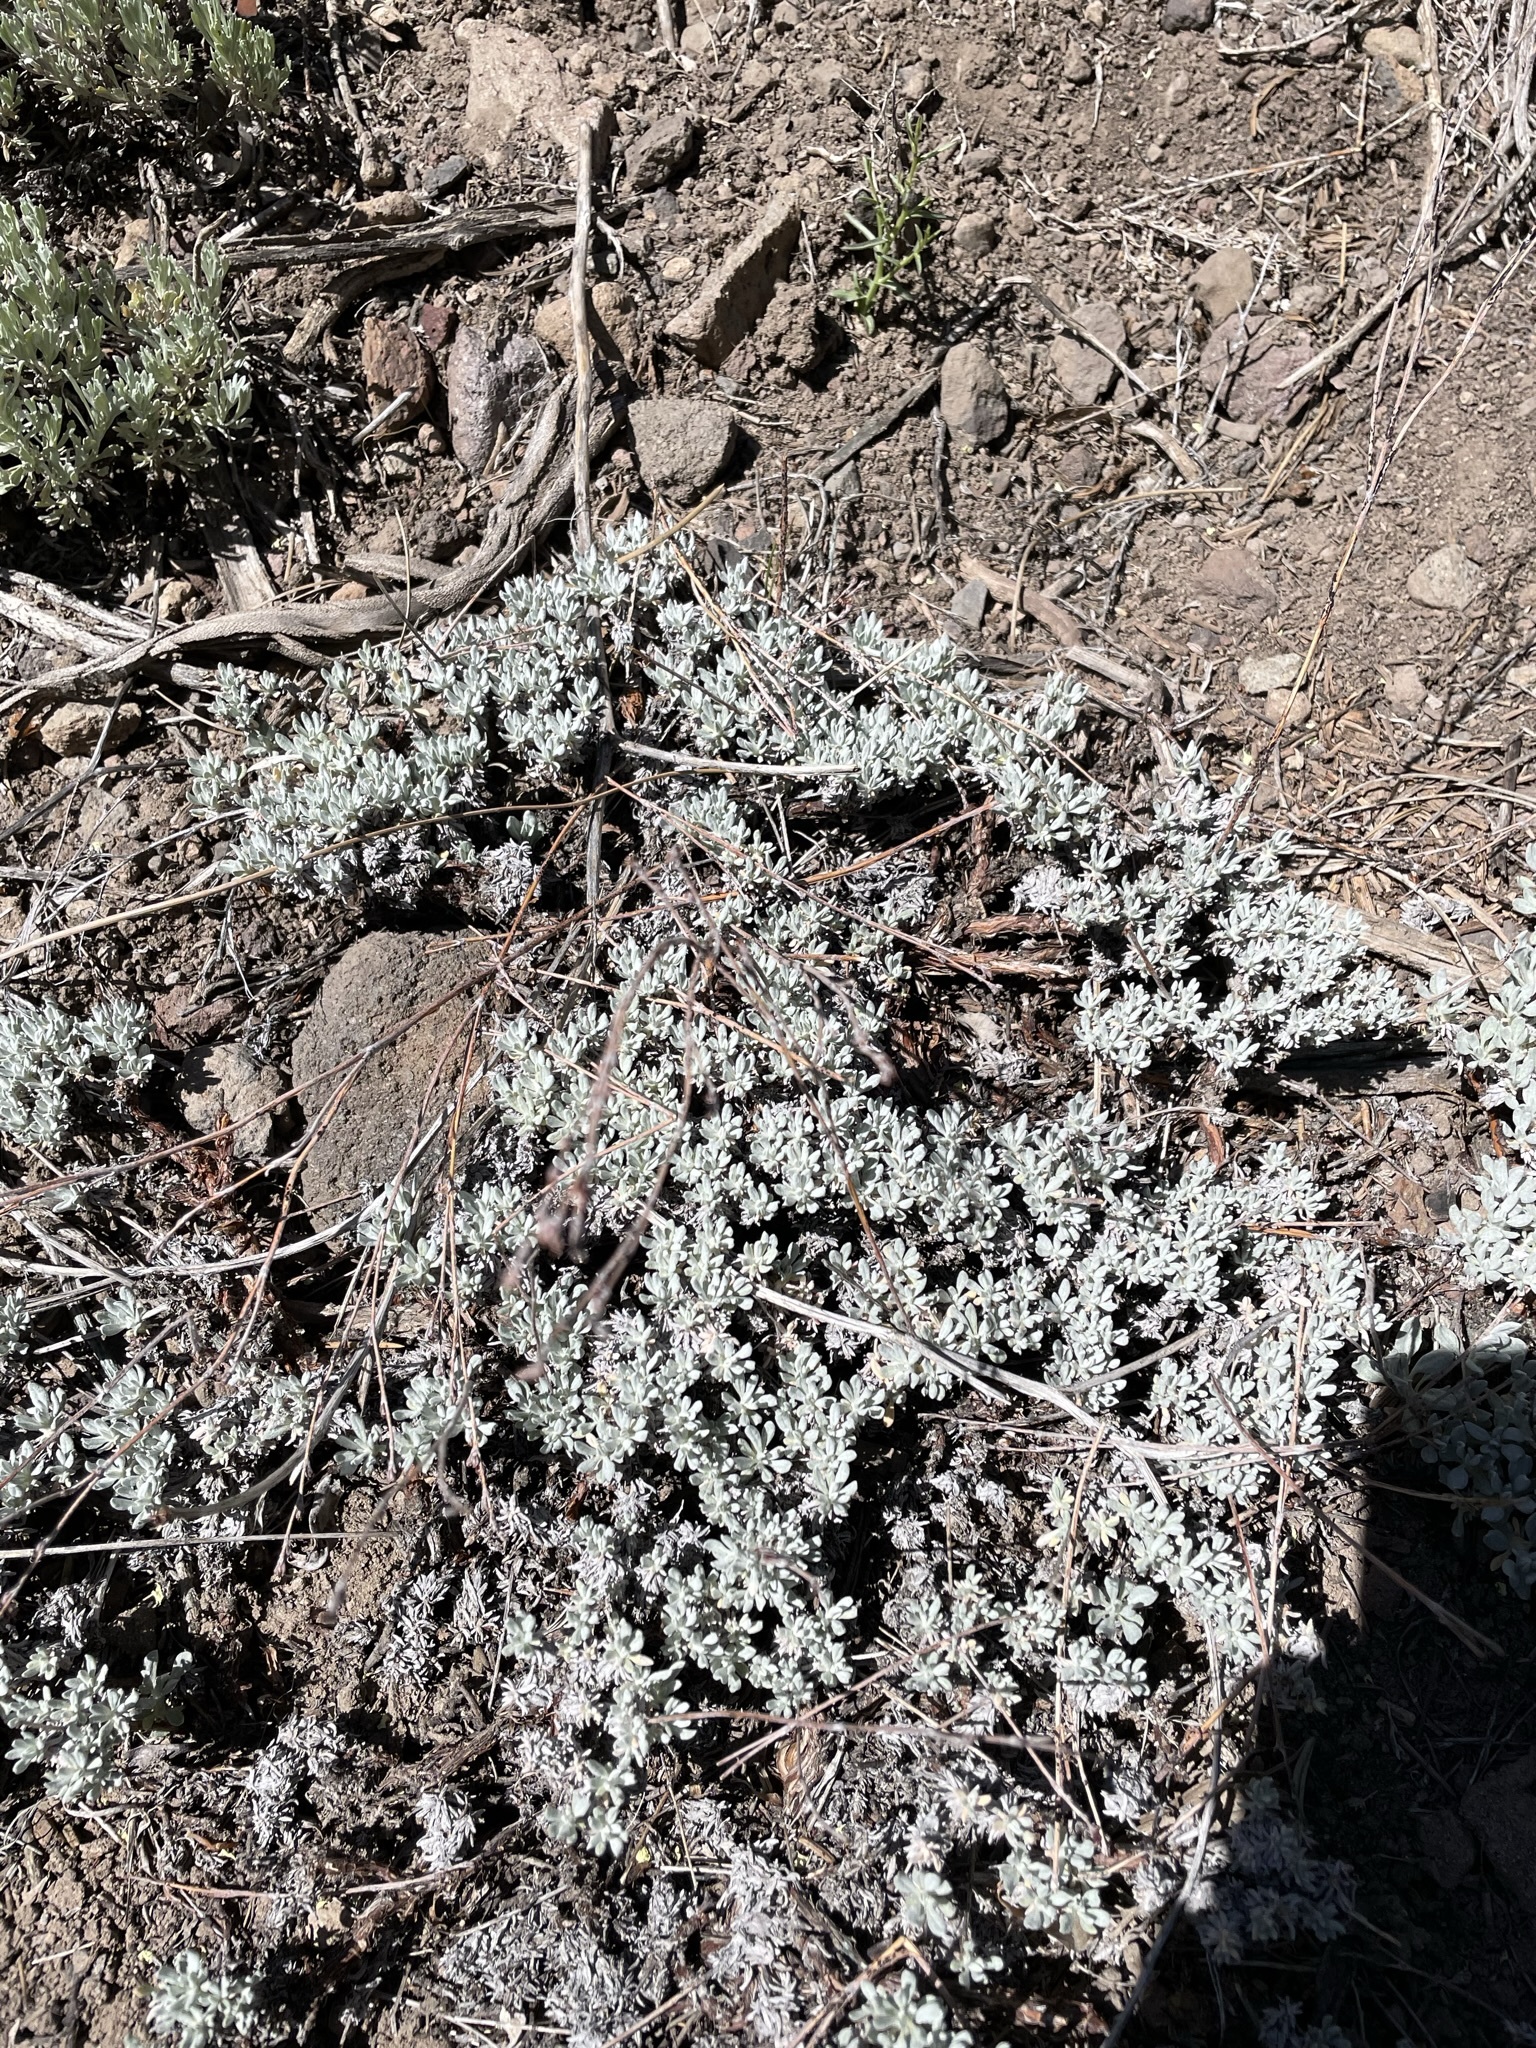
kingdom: Plantae
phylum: Tracheophyta
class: Magnoliopsida
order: Caryophyllales
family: Polygonaceae
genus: Eriogonum
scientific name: Eriogonum wrightii
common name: Bastard-sage
